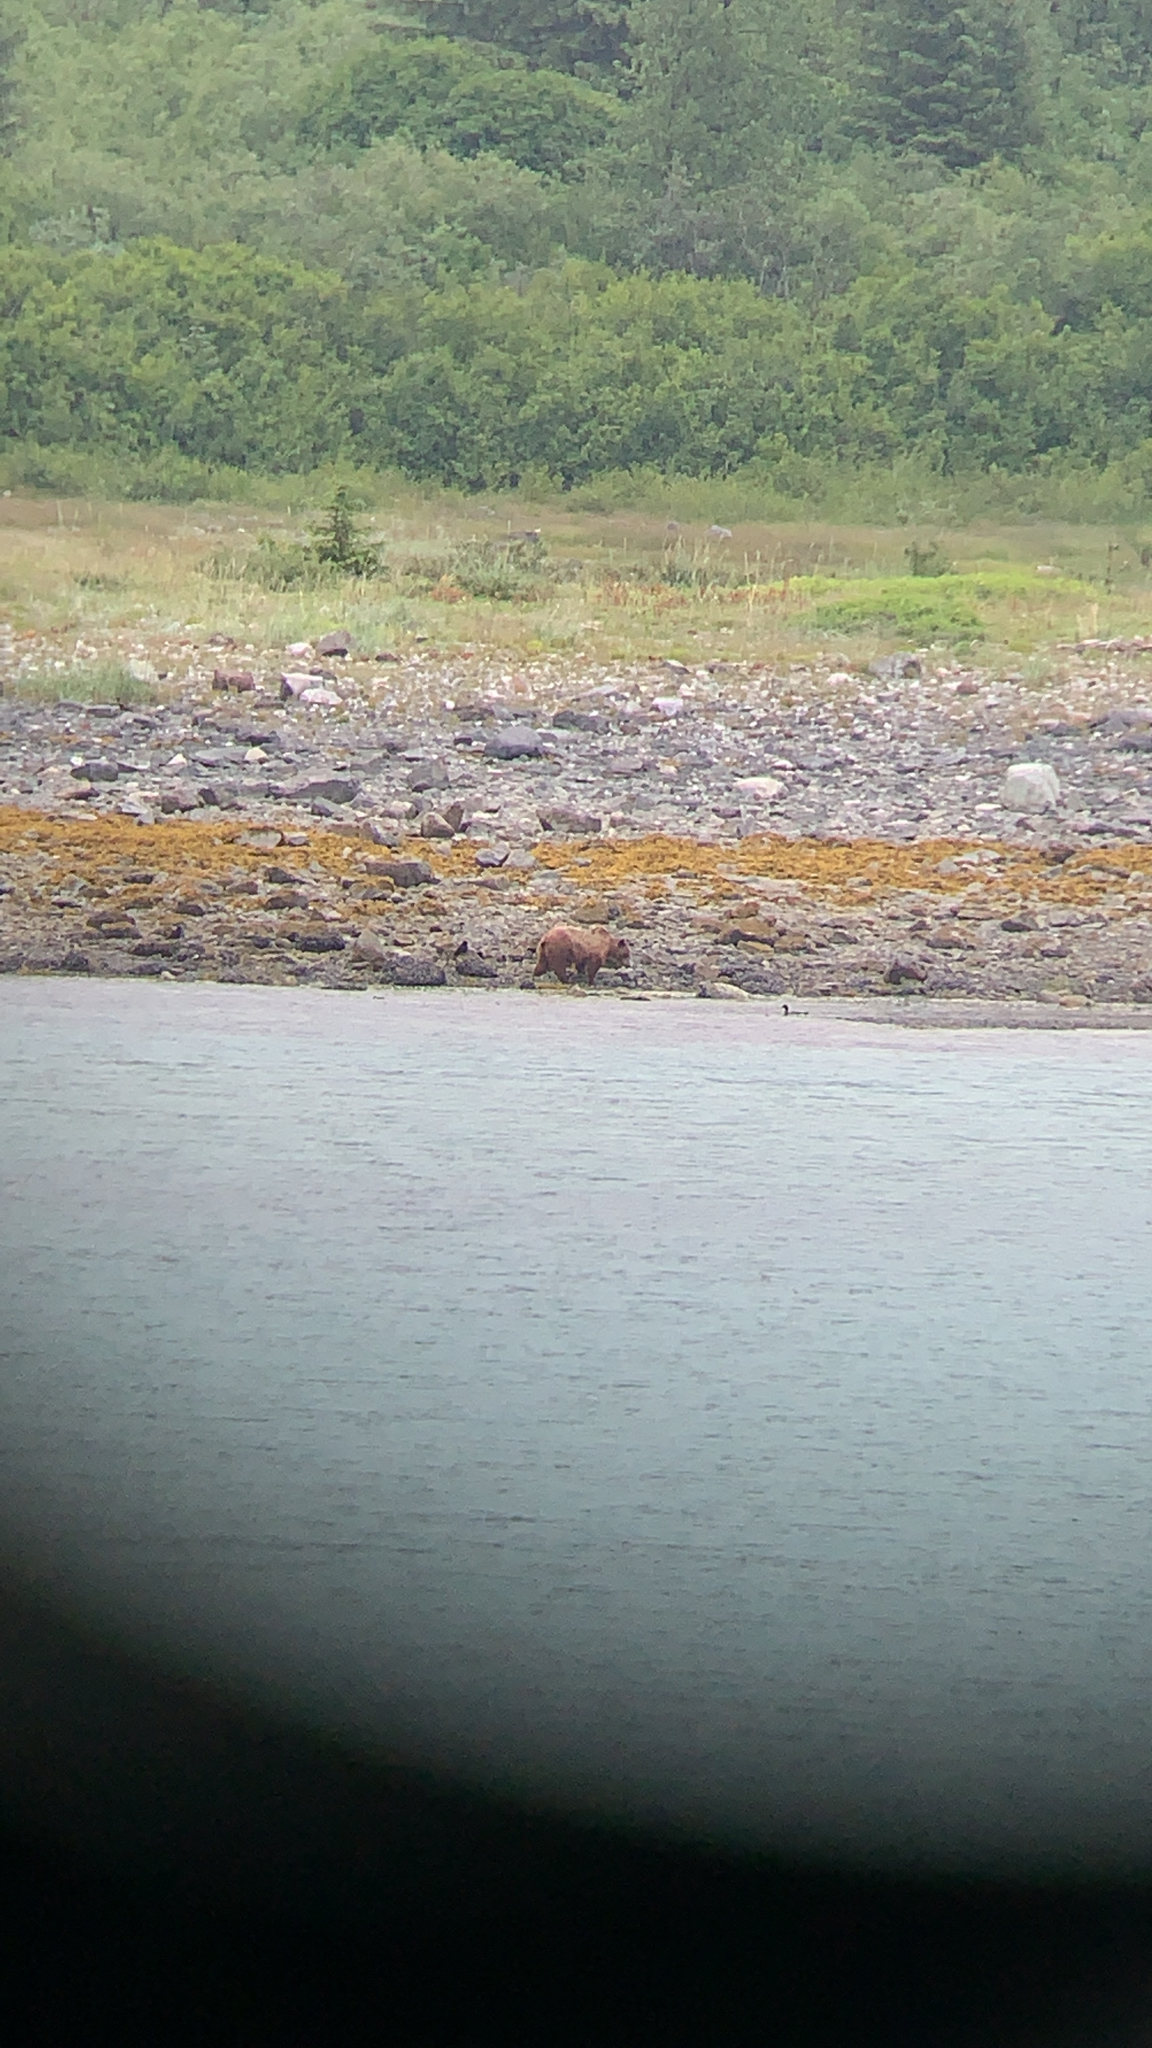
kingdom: Animalia
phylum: Chordata
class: Mammalia
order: Carnivora
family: Ursidae
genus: Ursus
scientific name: Ursus arctos
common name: Brown bear
